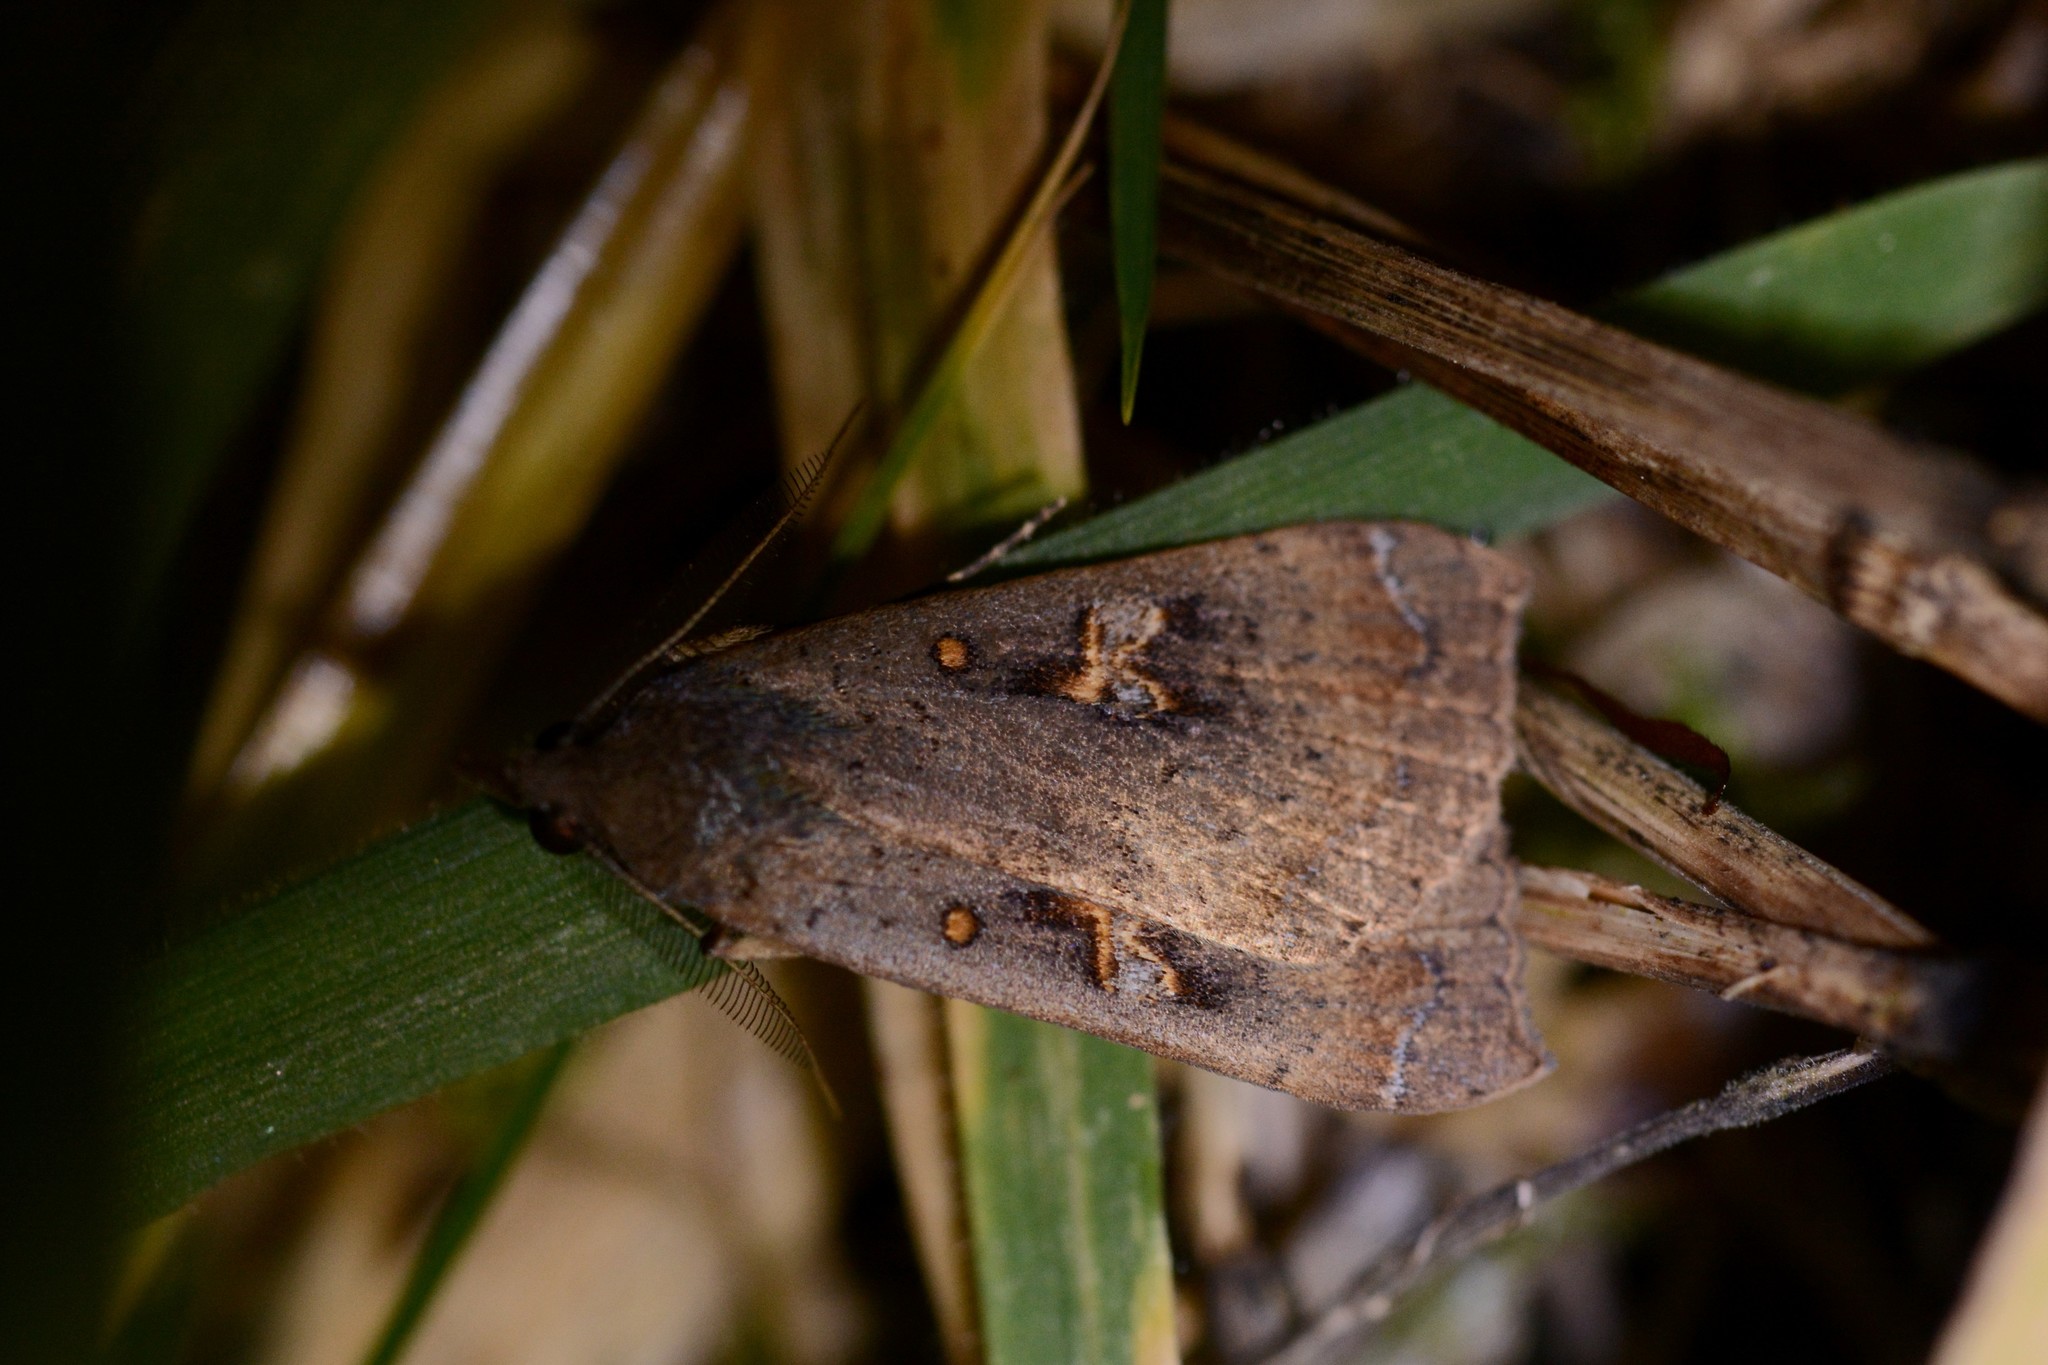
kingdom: Animalia
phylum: Arthropoda
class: Insecta
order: Lepidoptera
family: Erebidae
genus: Rhapsa
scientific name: Rhapsa scotosialis
